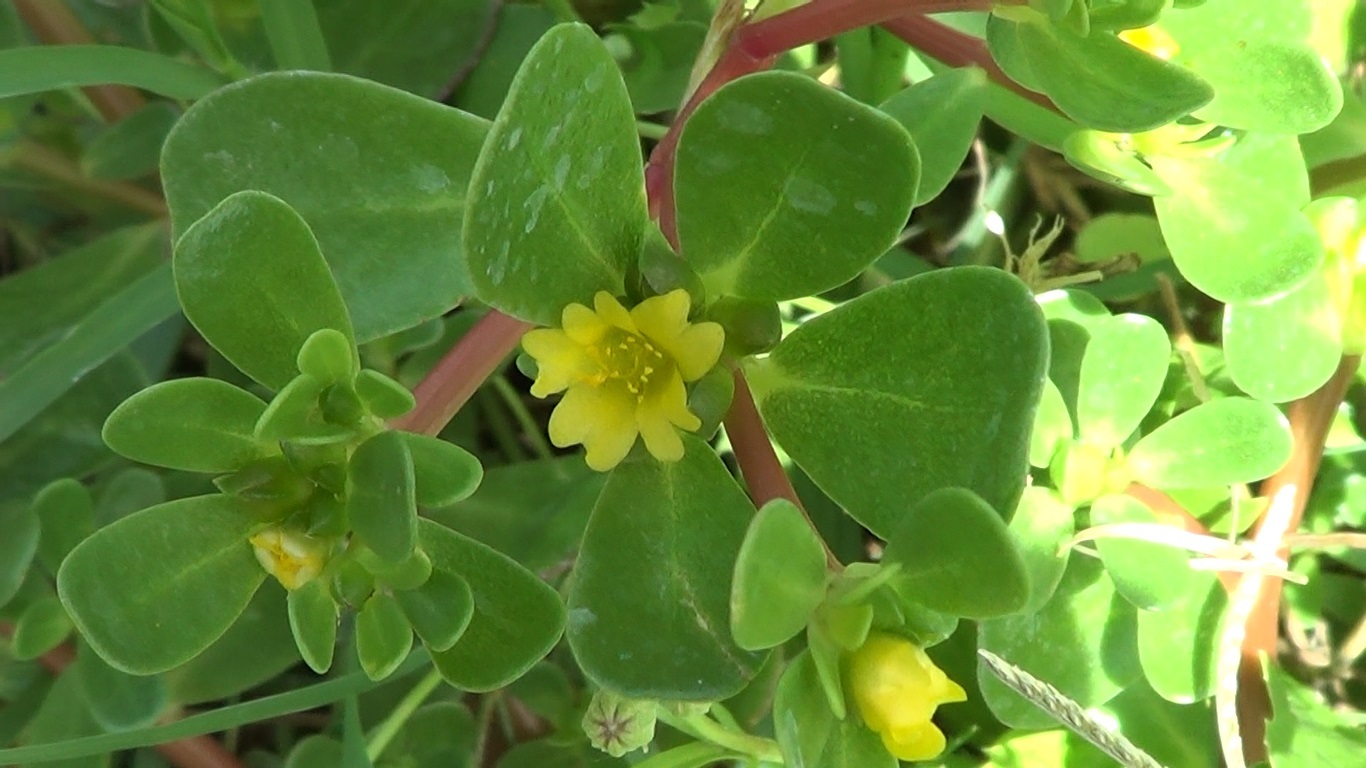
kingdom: Plantae
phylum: Tracheophyta
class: Magnoliopsida
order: Caryophyllales
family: Portulacaceae
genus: Portulaca
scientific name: Portulaca oleracea
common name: Common purslane
